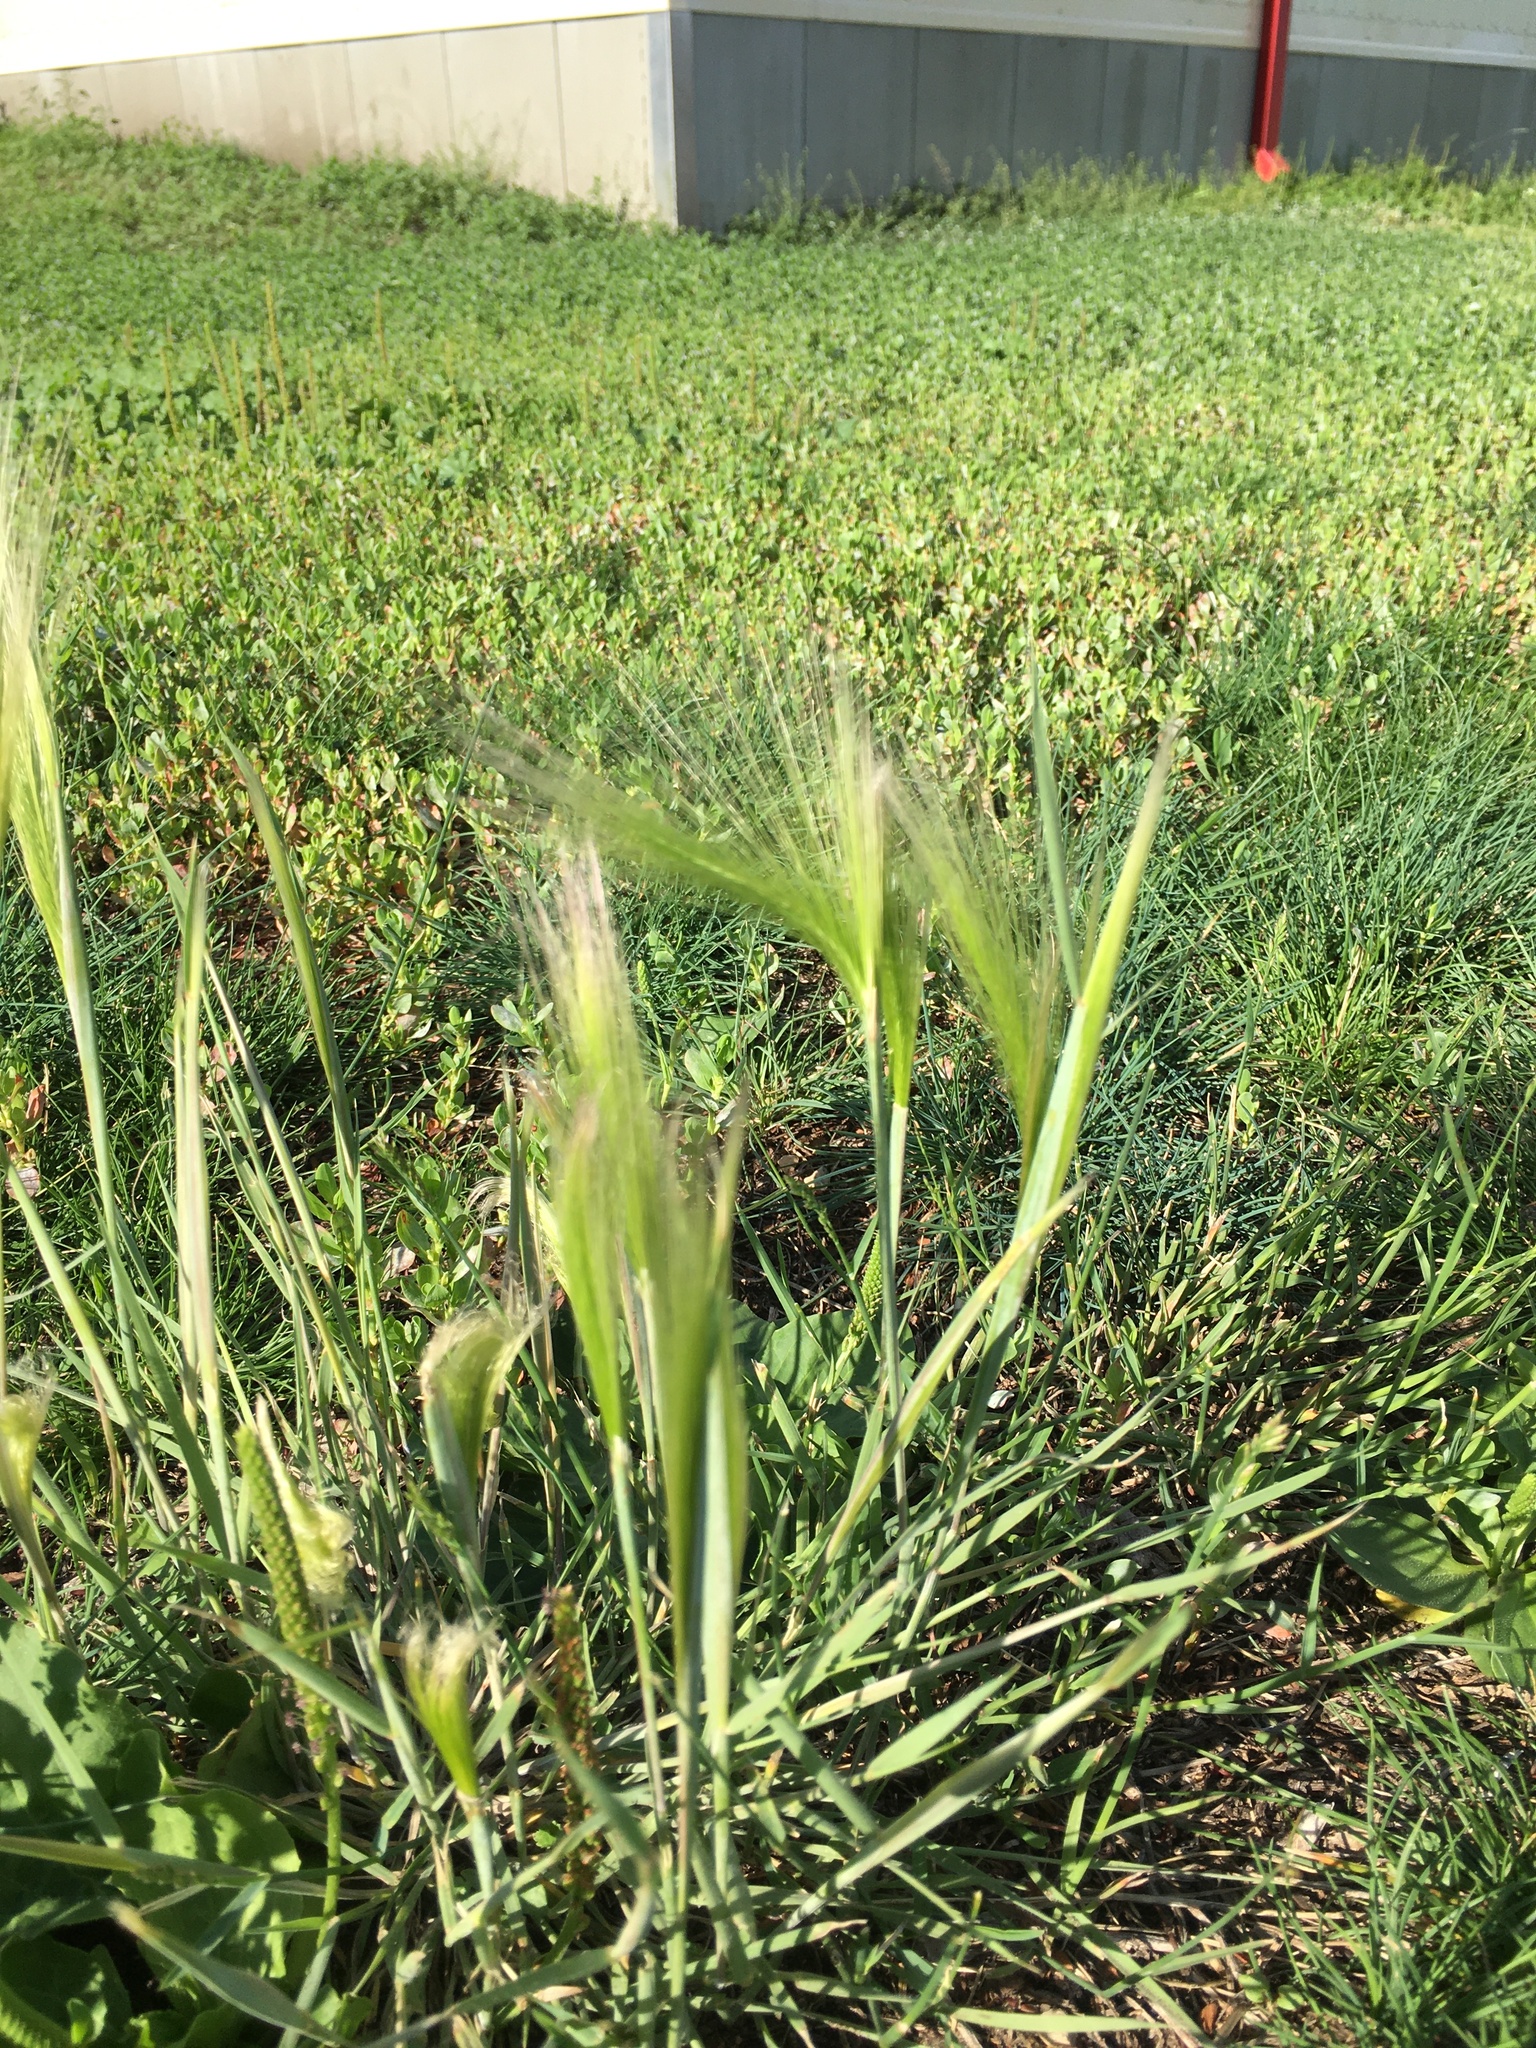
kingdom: Plantae
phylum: Tracheophyta
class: Liliopsida
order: Poales
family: Poaceae
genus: Hordeum
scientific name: Hordeum jubatum
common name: Foxtail barley
